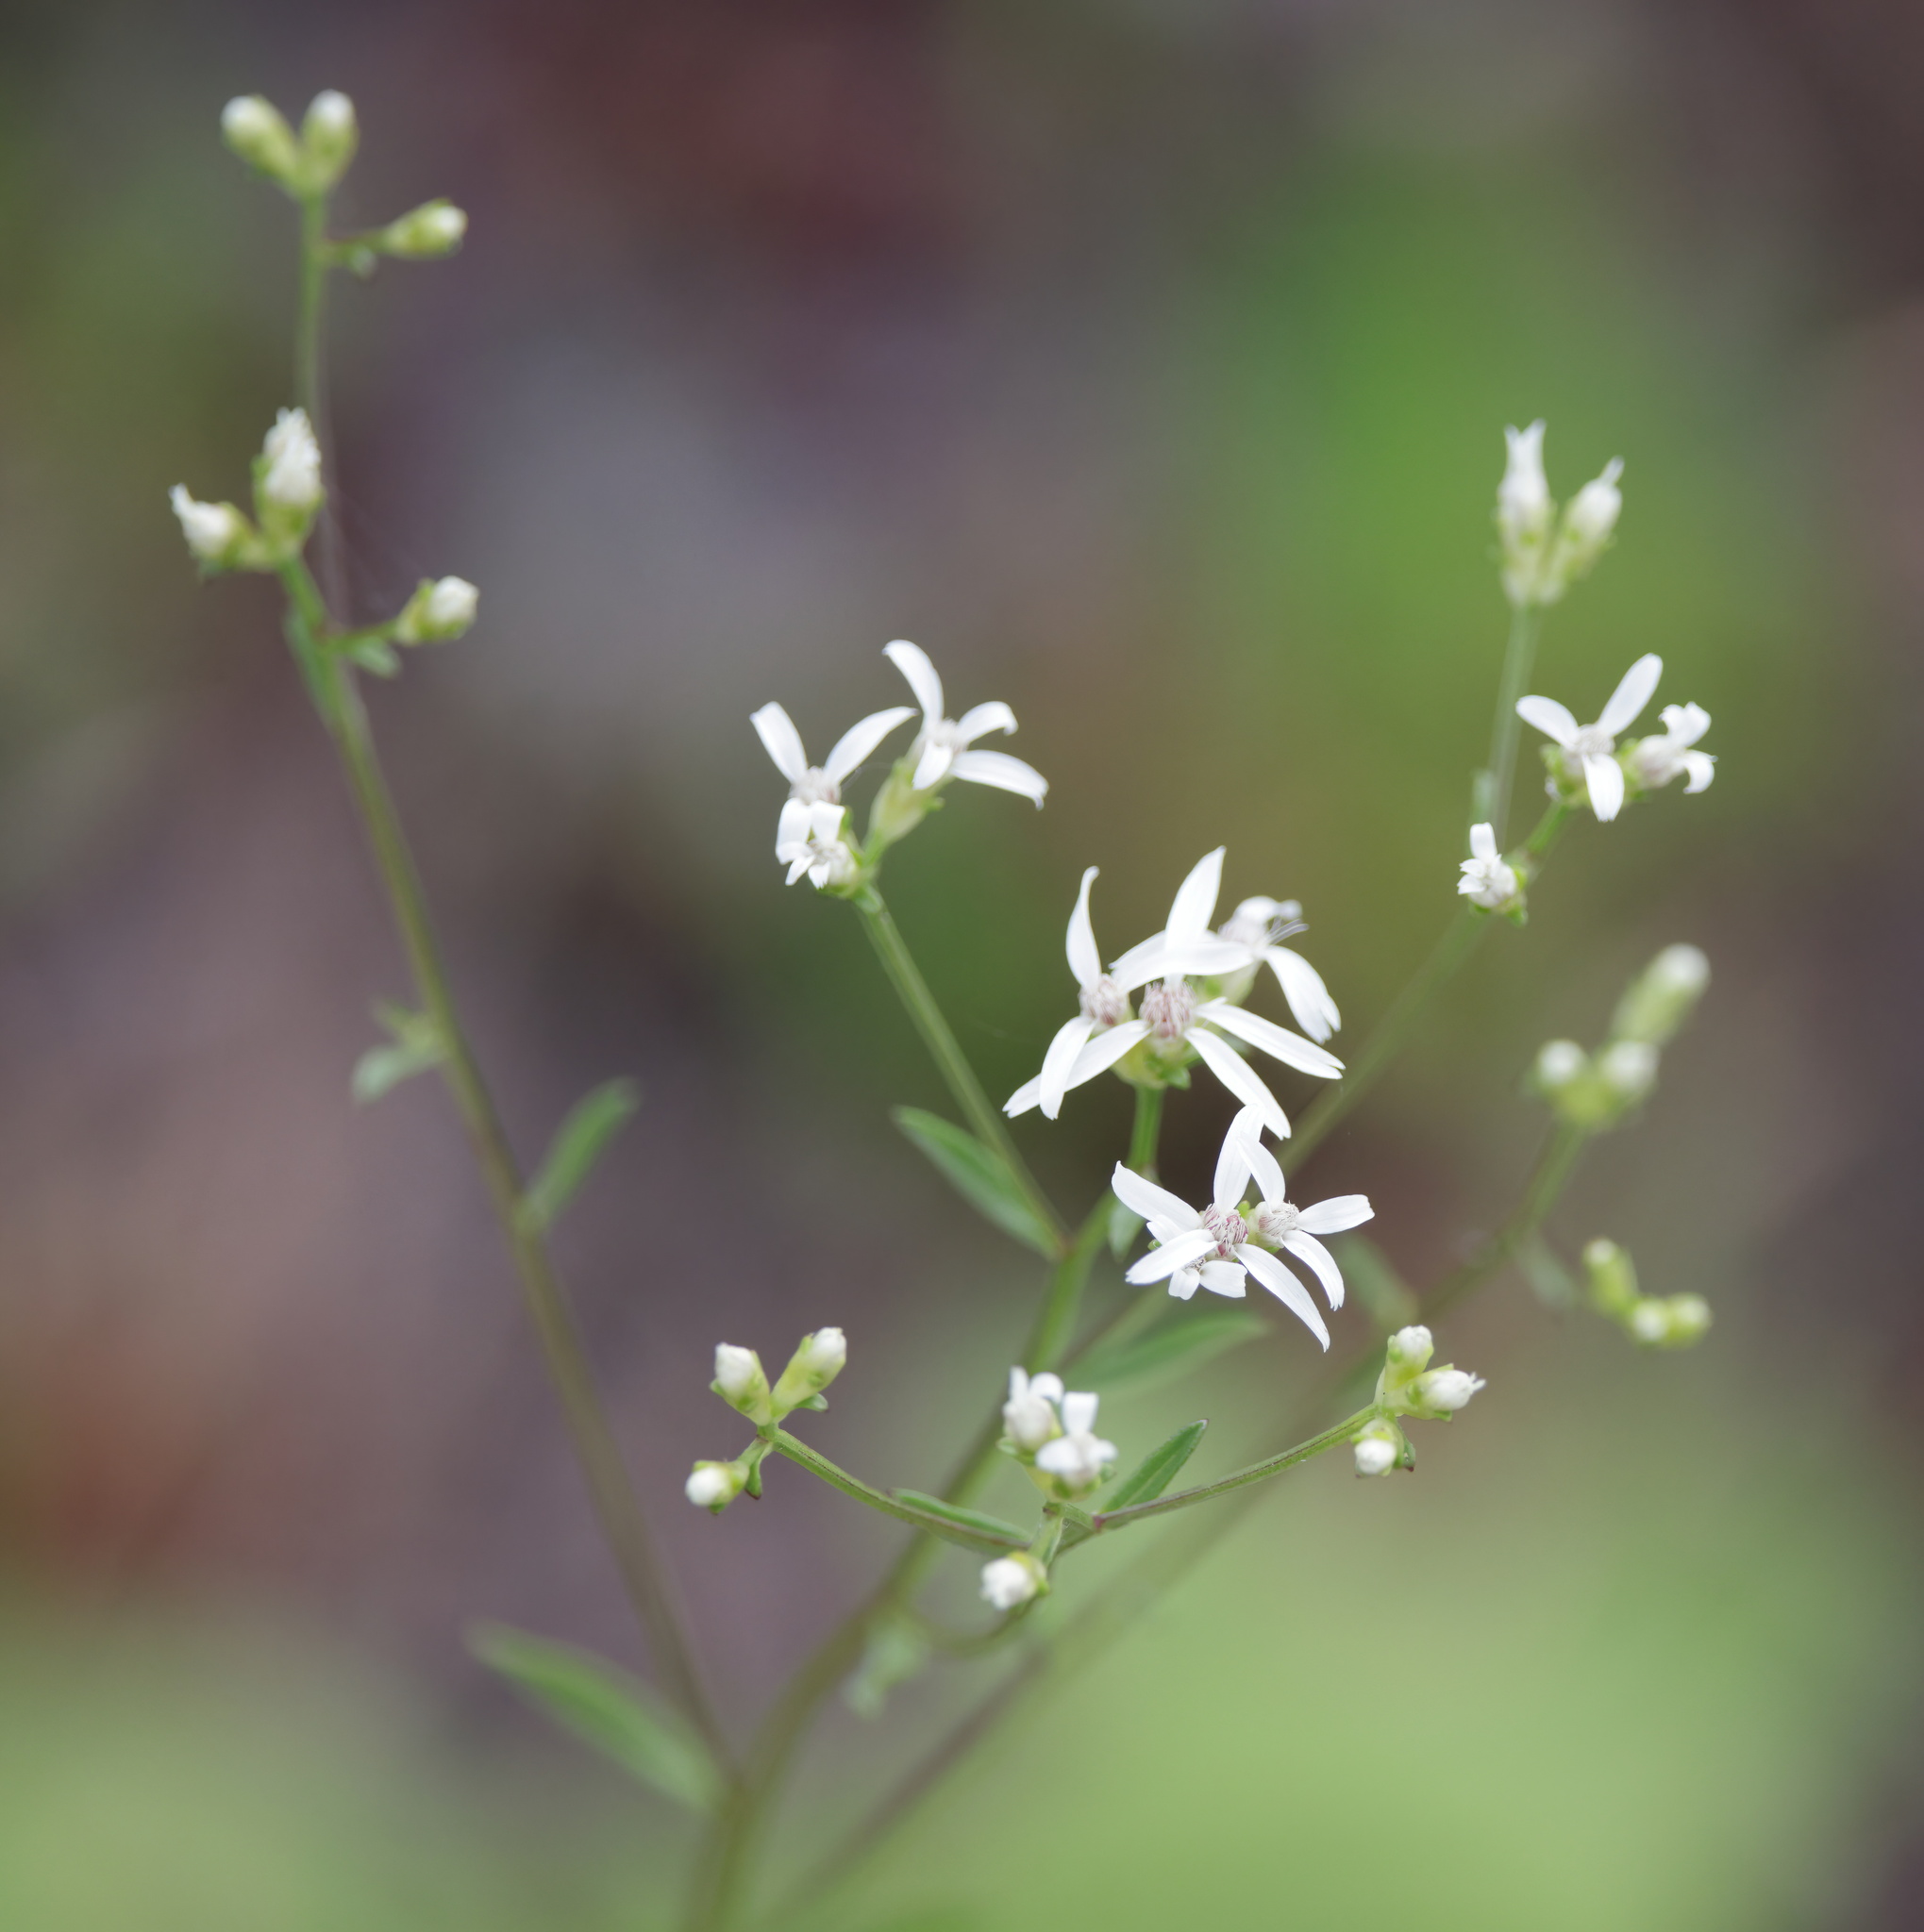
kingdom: Plantae
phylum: Tracheophyta
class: Magnoliopsida
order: Asterales
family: Asteraceae
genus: Sericocarpus
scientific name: Sericocarpus linifolius
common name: Narrow-leaf aster
